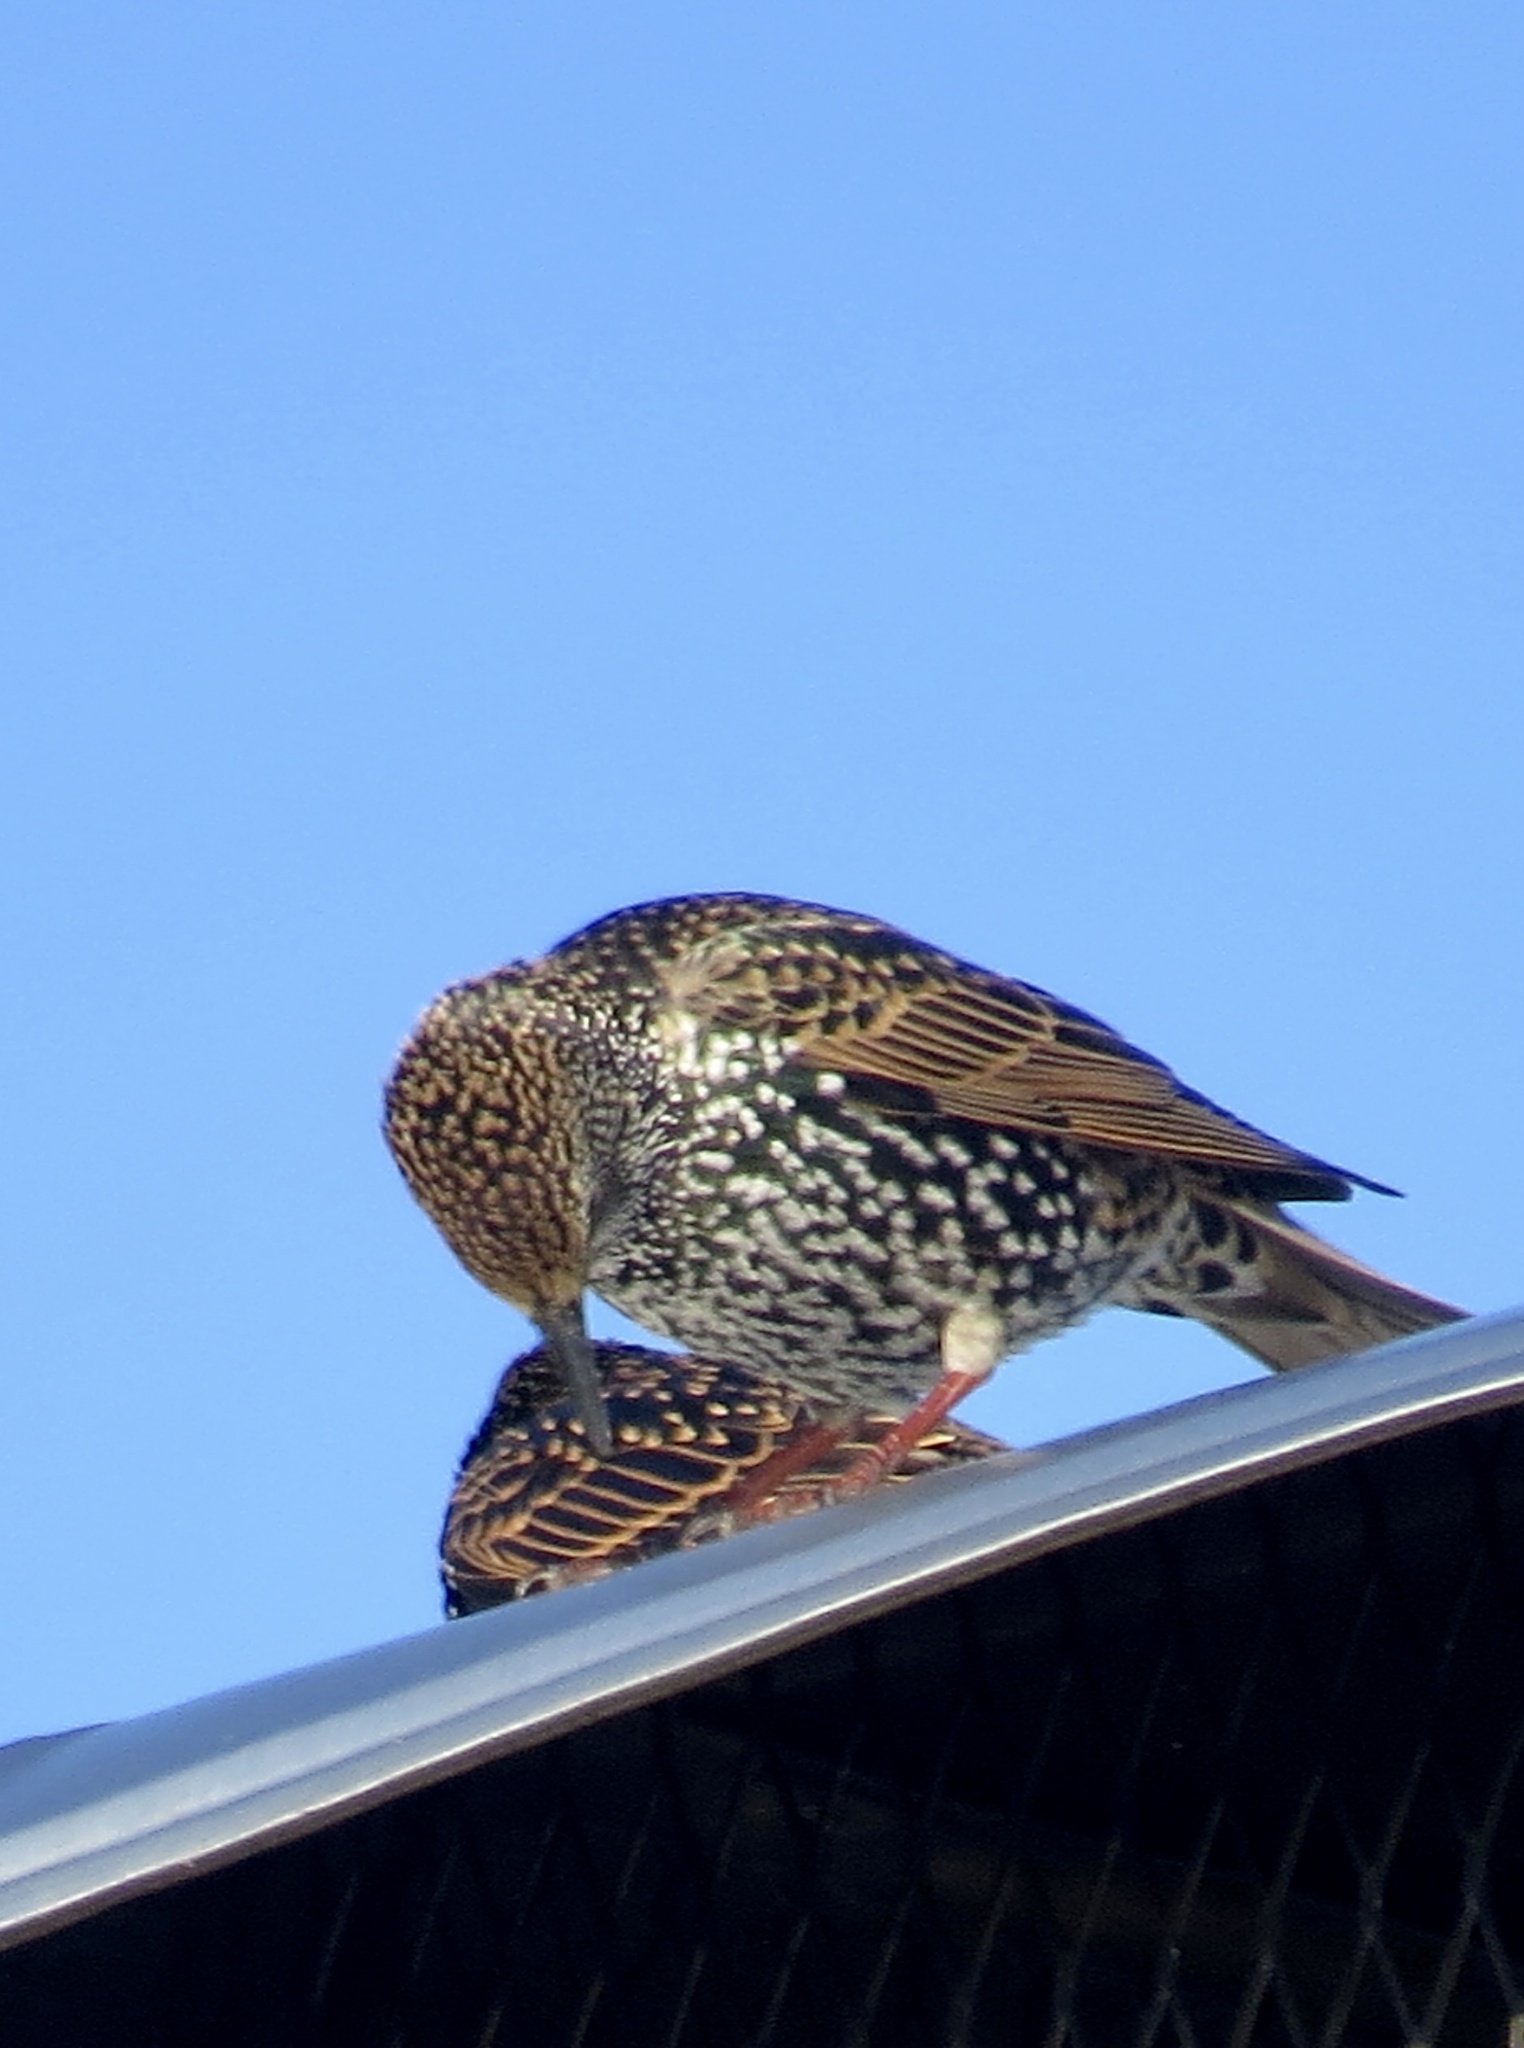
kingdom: Animalia
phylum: Chordata
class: Aves
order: Passeriformes
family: Sturnidae
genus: Sturnus
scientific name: Sturnus vulgaris
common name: Common starling
